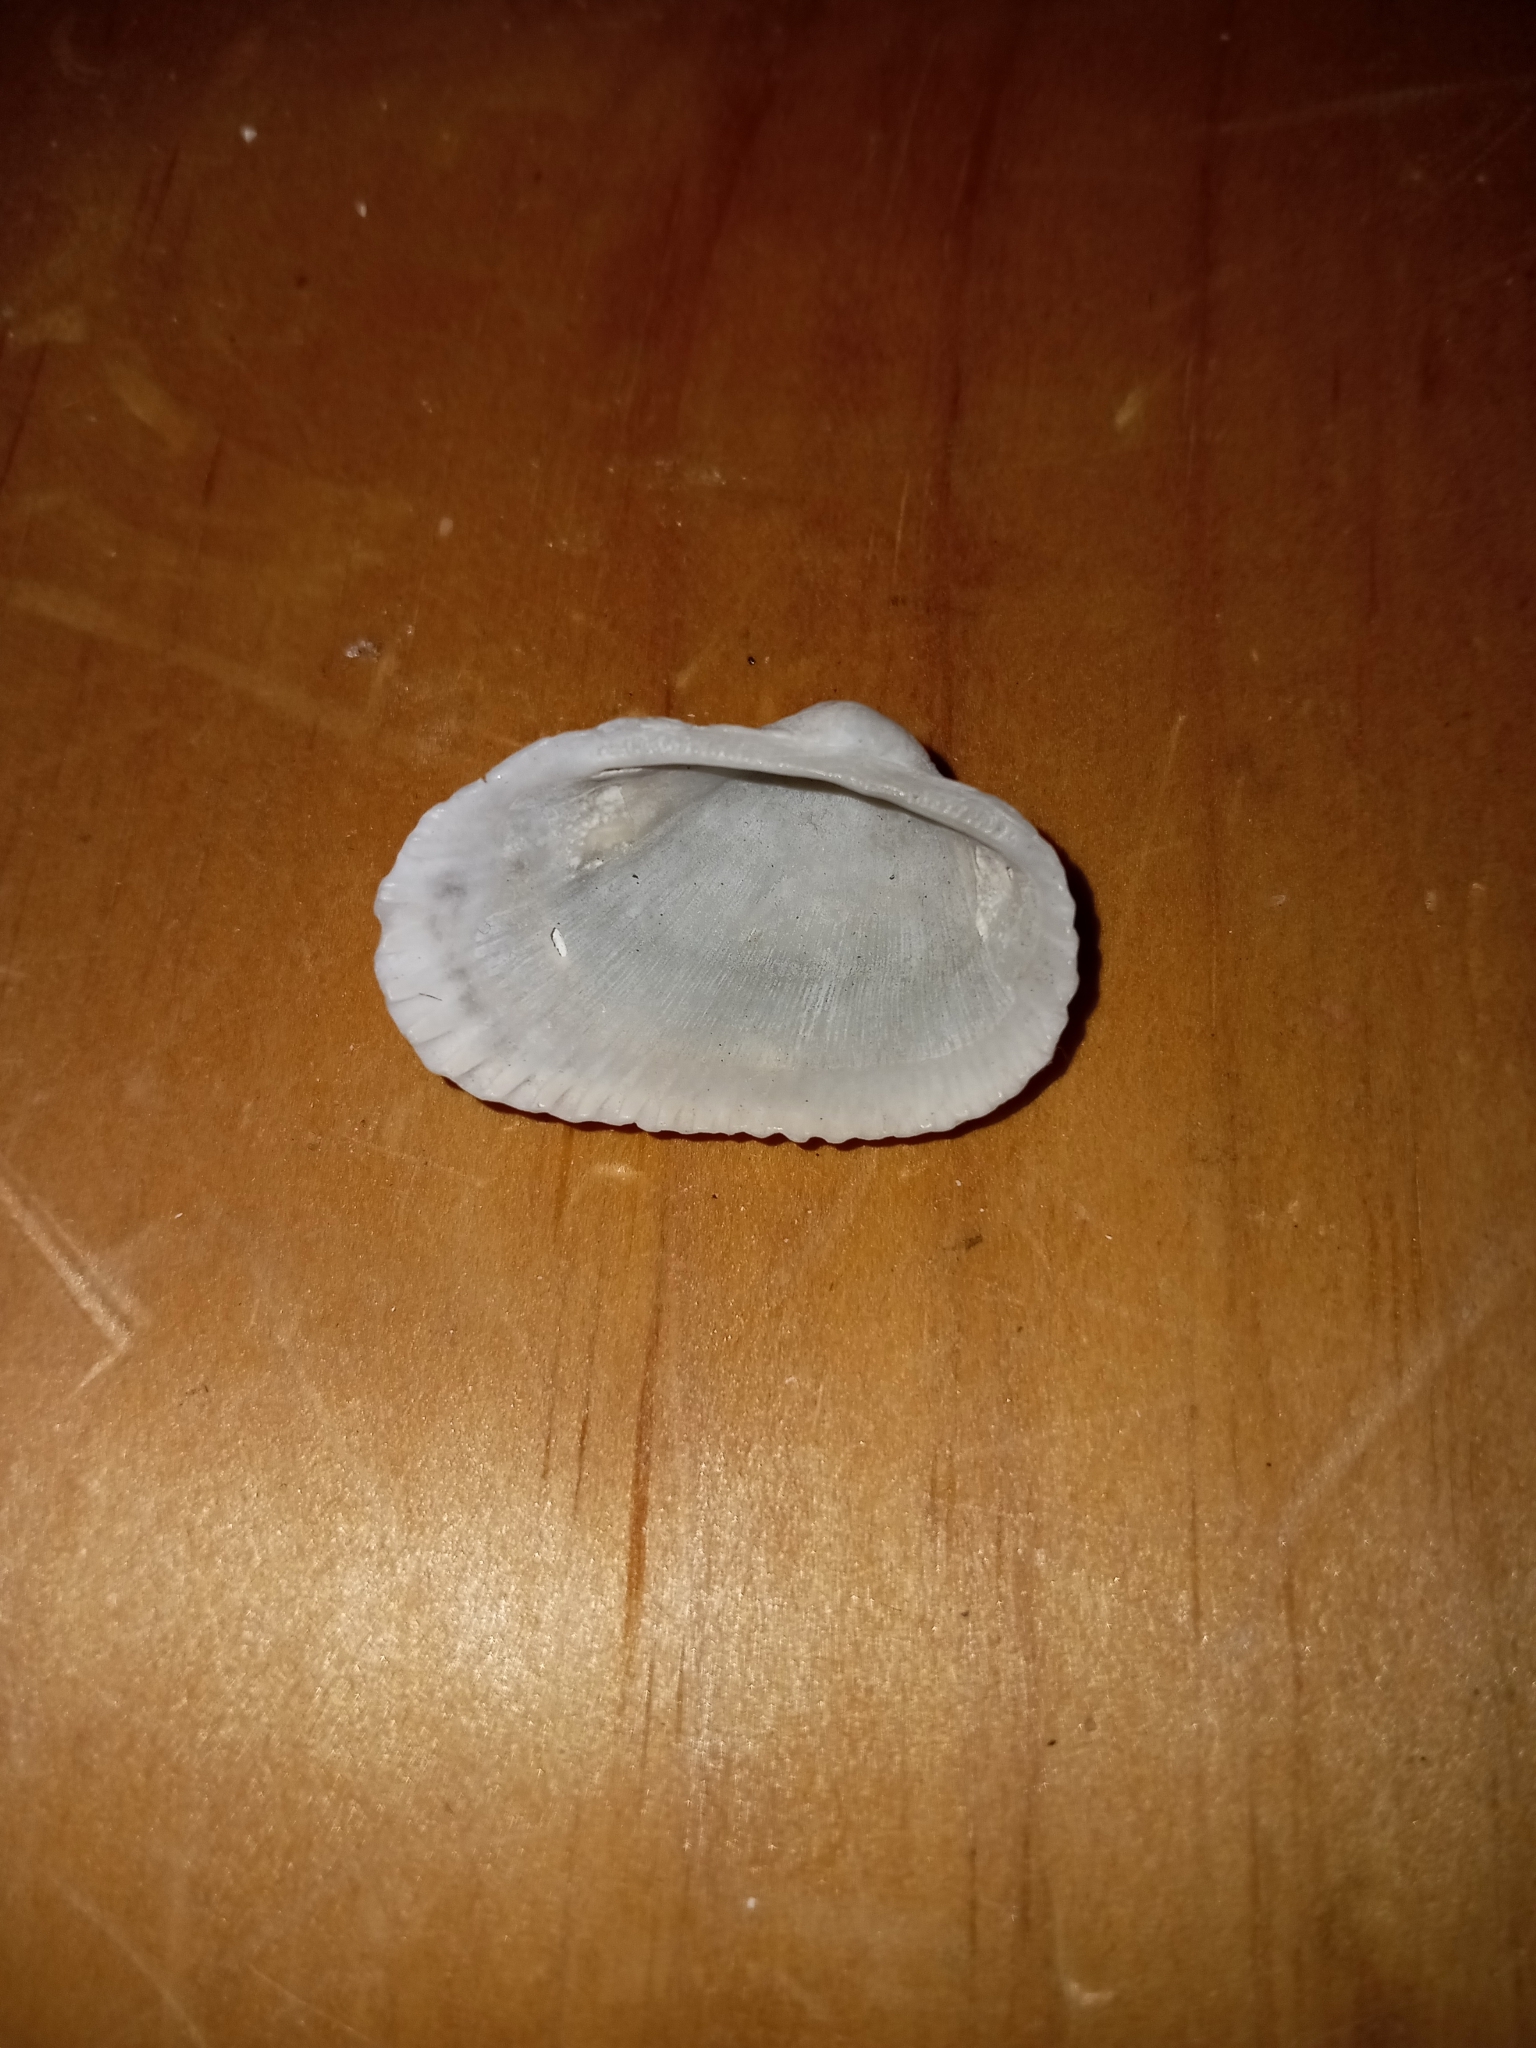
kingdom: Animalia
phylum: Mollusca
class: Bivalvia
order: Arcida
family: Arcidae
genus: Anadara
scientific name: Anadara transversa
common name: Transverse ark
